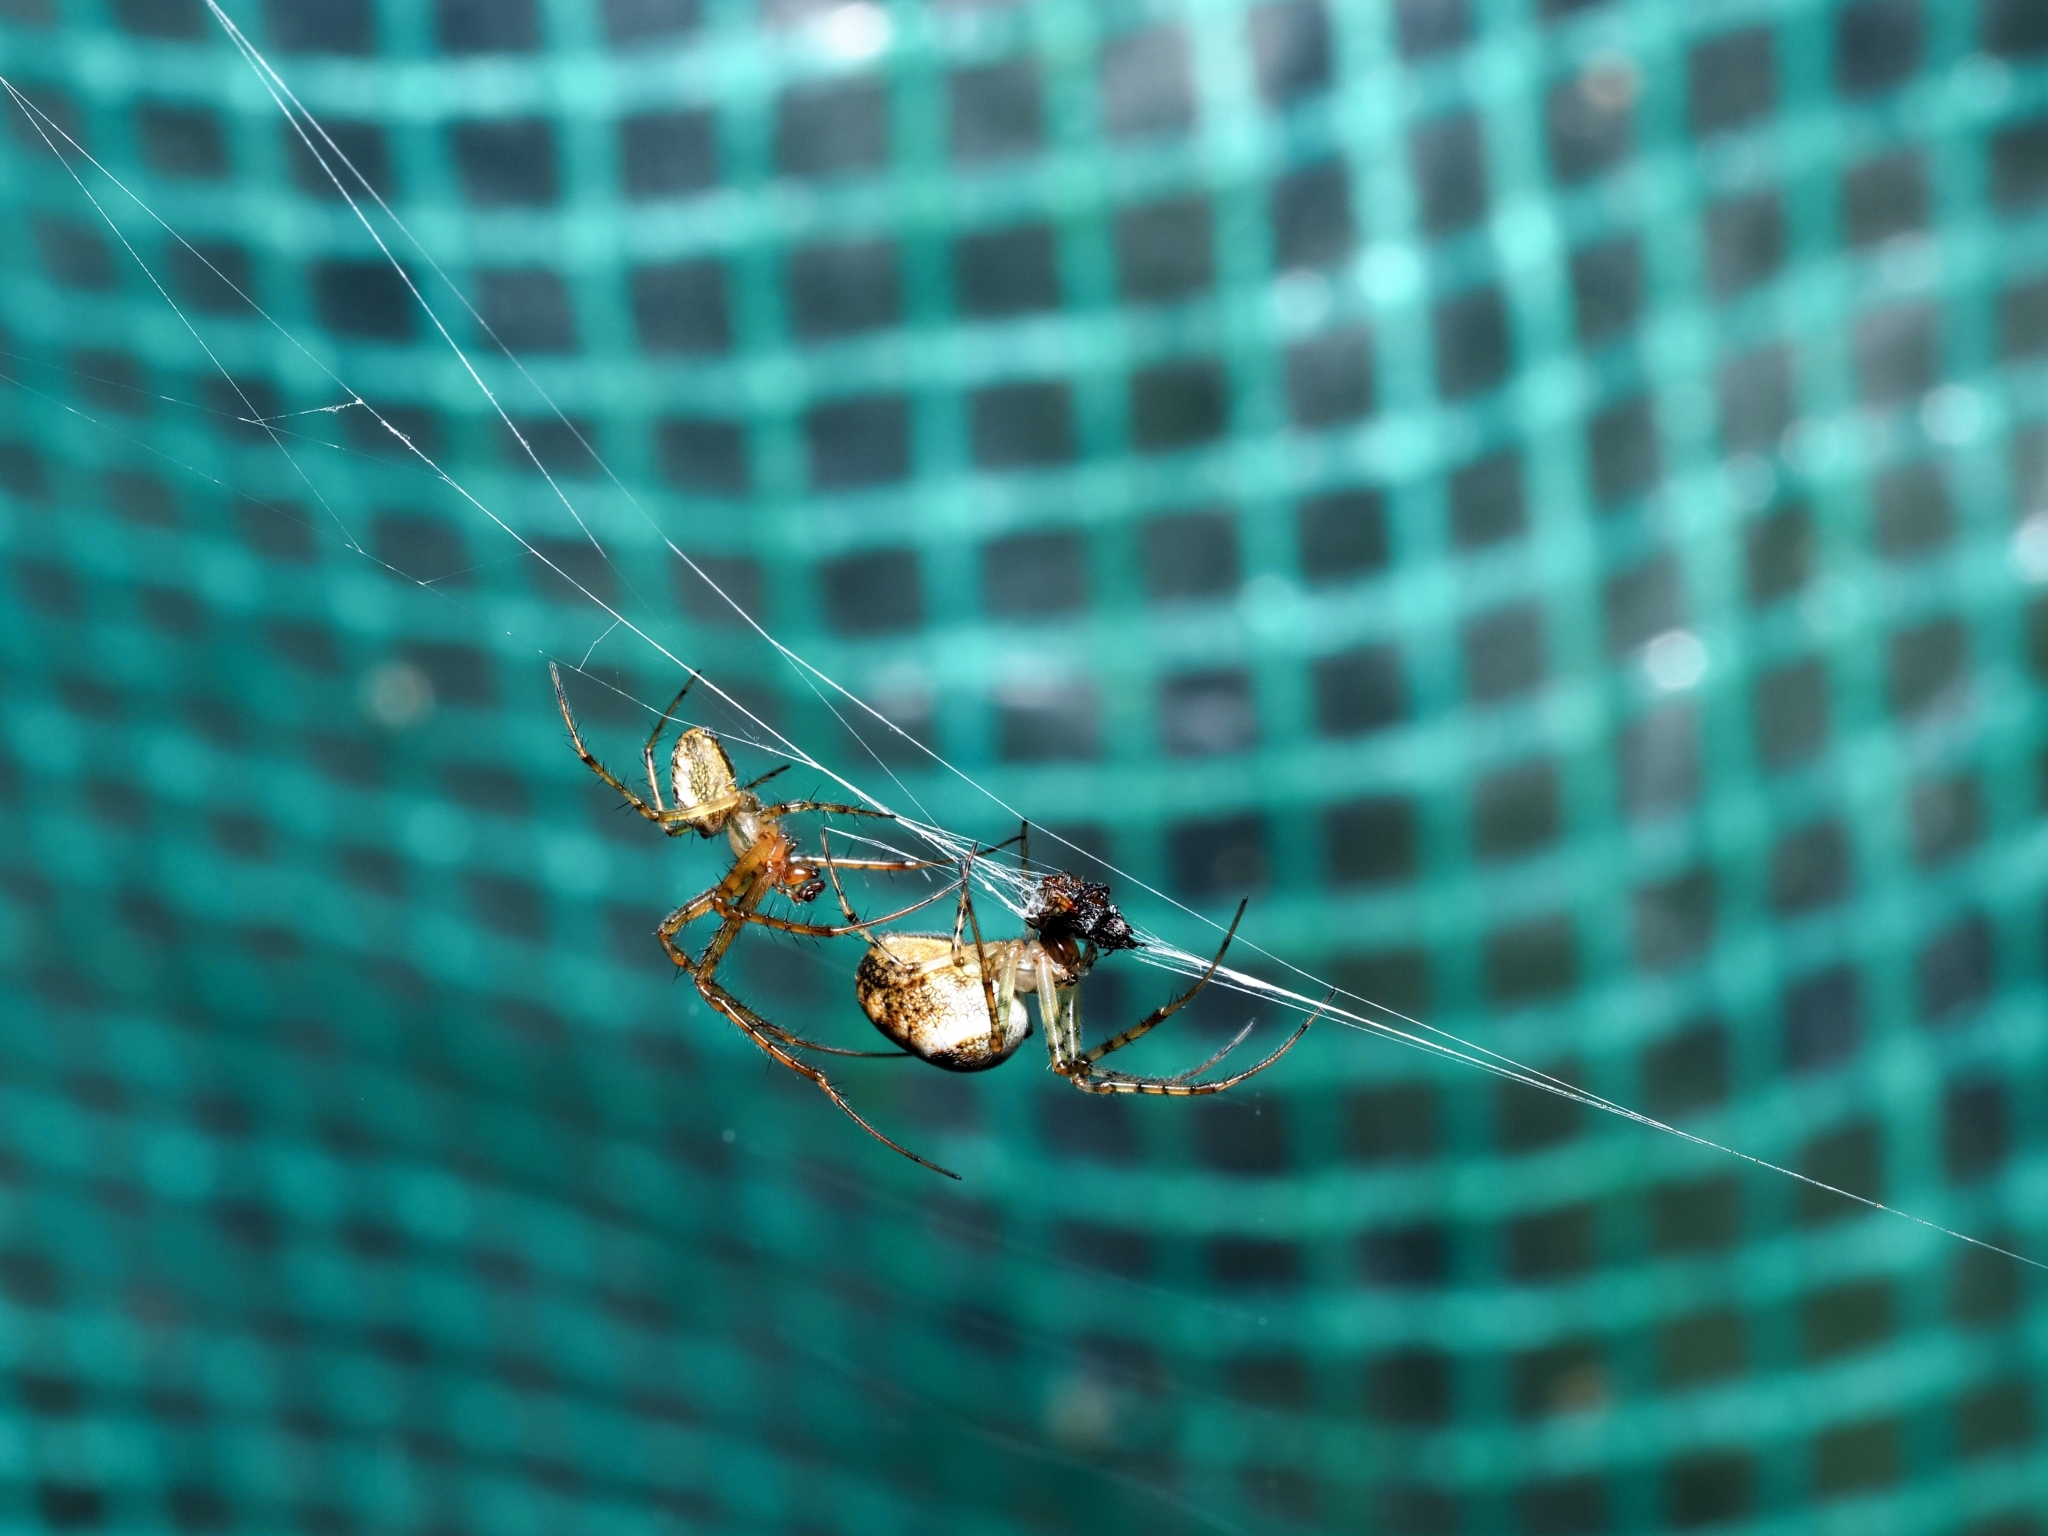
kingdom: Animalia
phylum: Arthropoda
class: Arachnida
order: Araneae
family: Tetragnathidae
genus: Metellina
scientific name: Metellina segmentata
